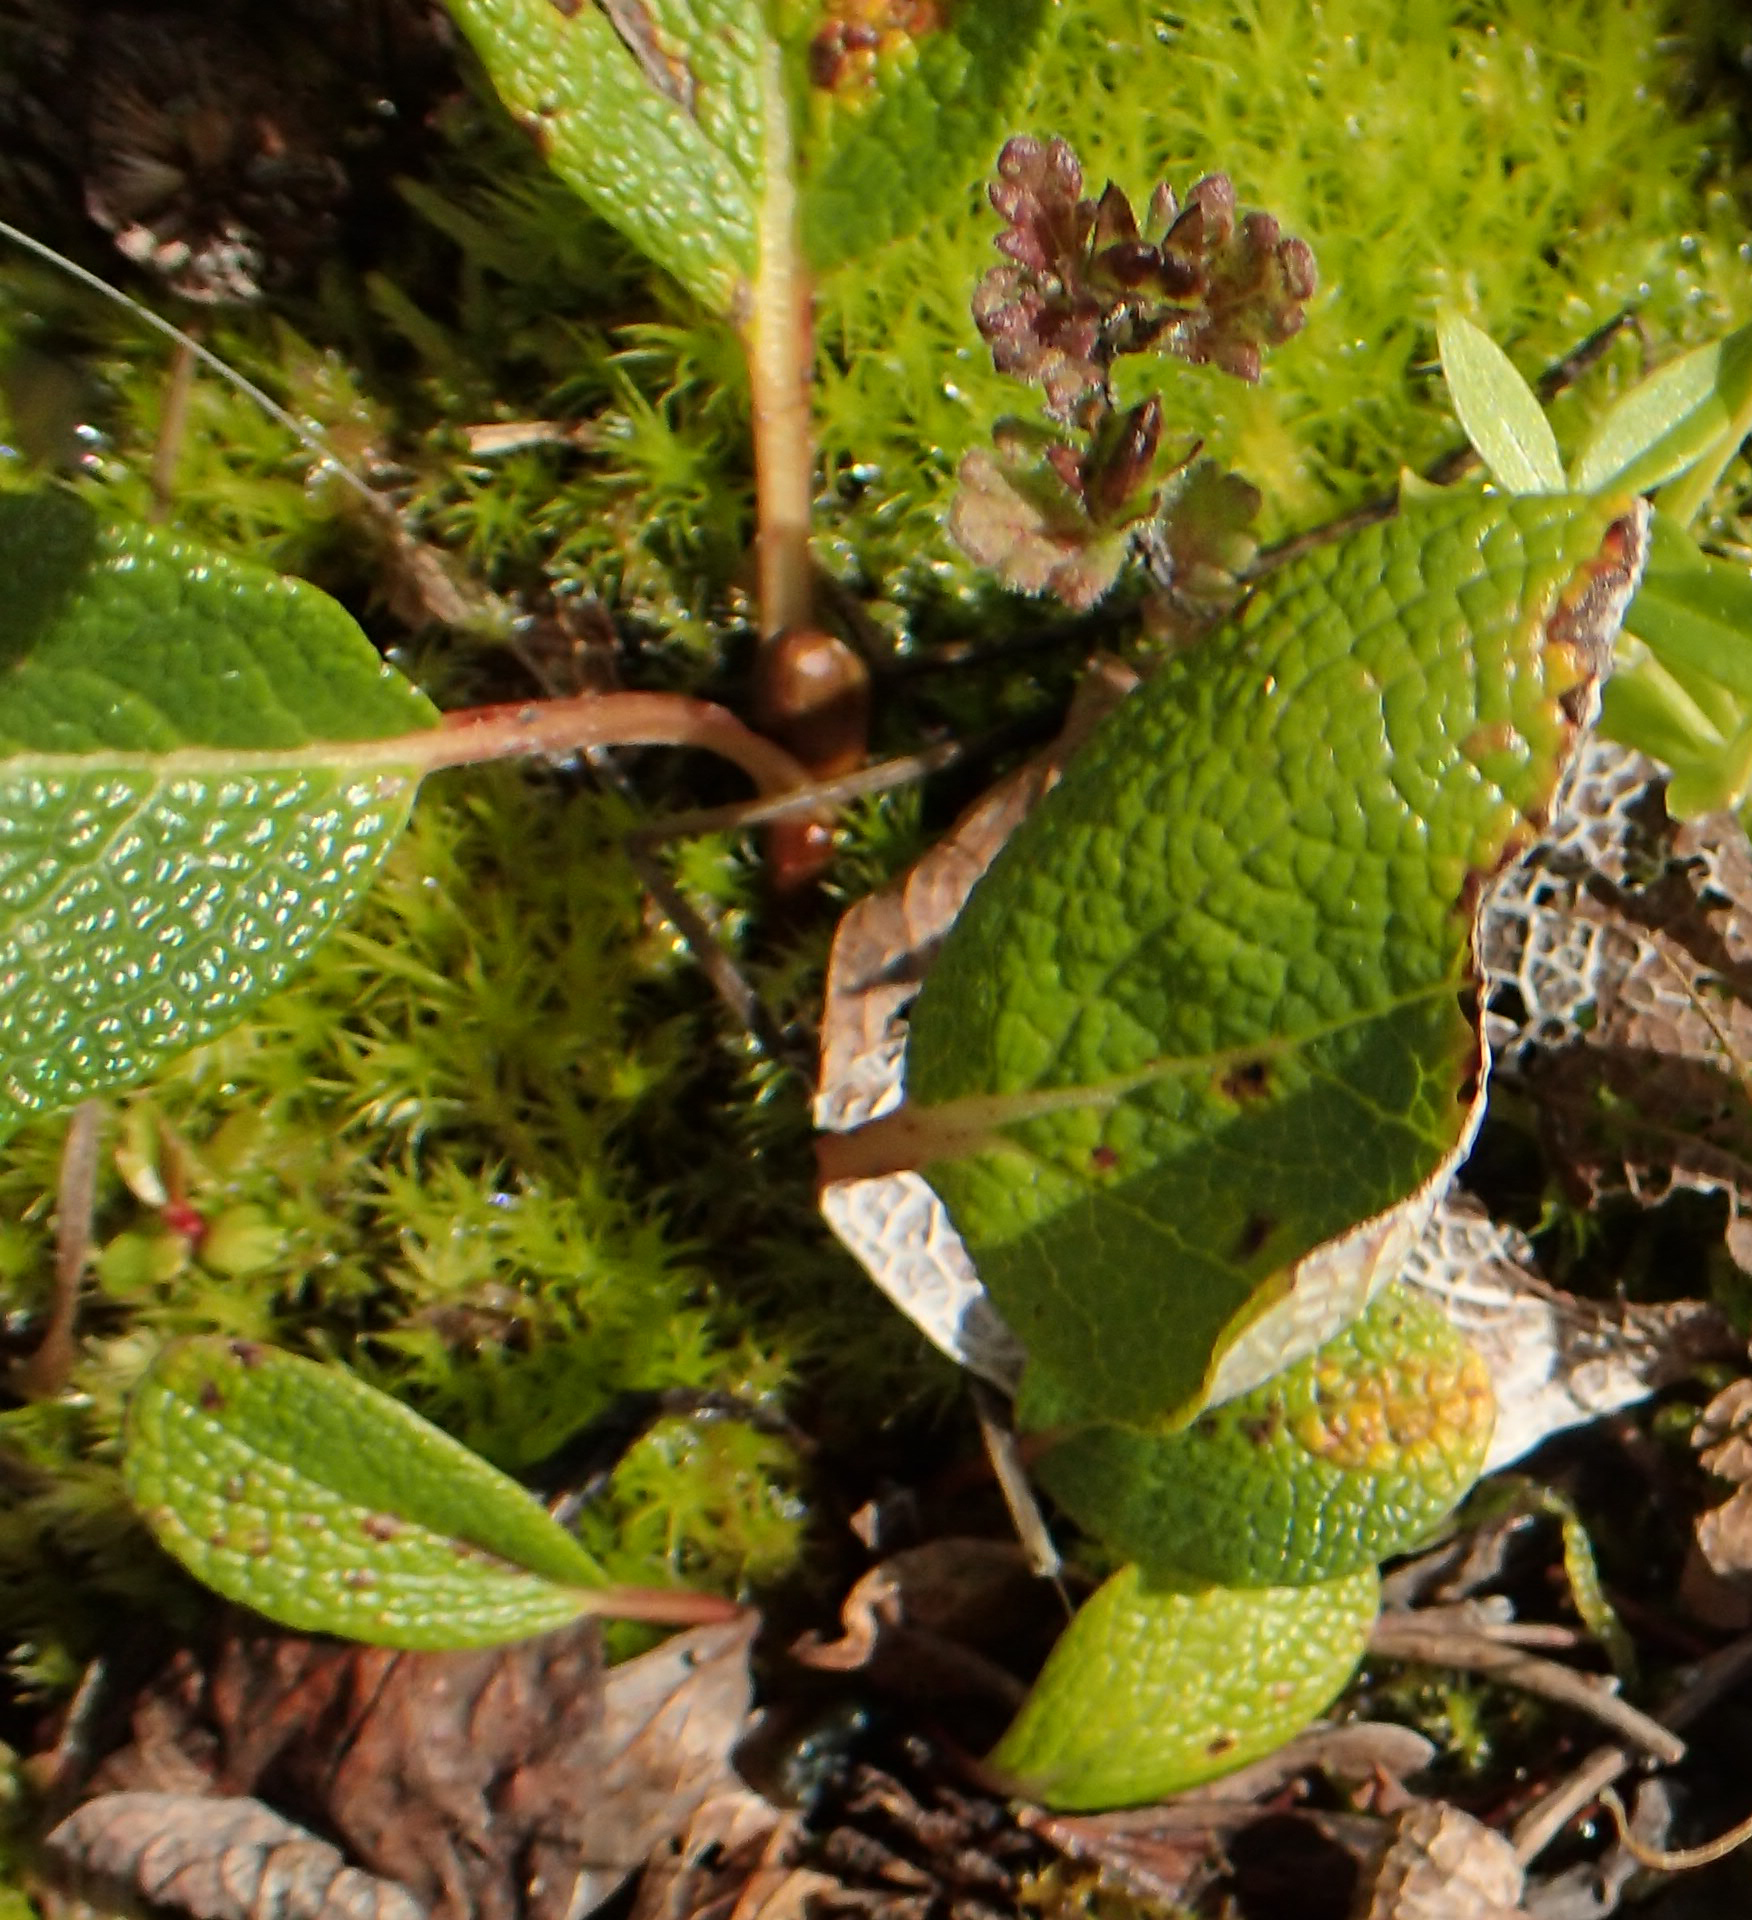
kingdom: Plantae
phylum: Tracheophyta
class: Magnoliopsida
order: Malpighiales
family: Salicaceae
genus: Salix
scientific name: Salix reticulata
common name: Net-leaved willow
